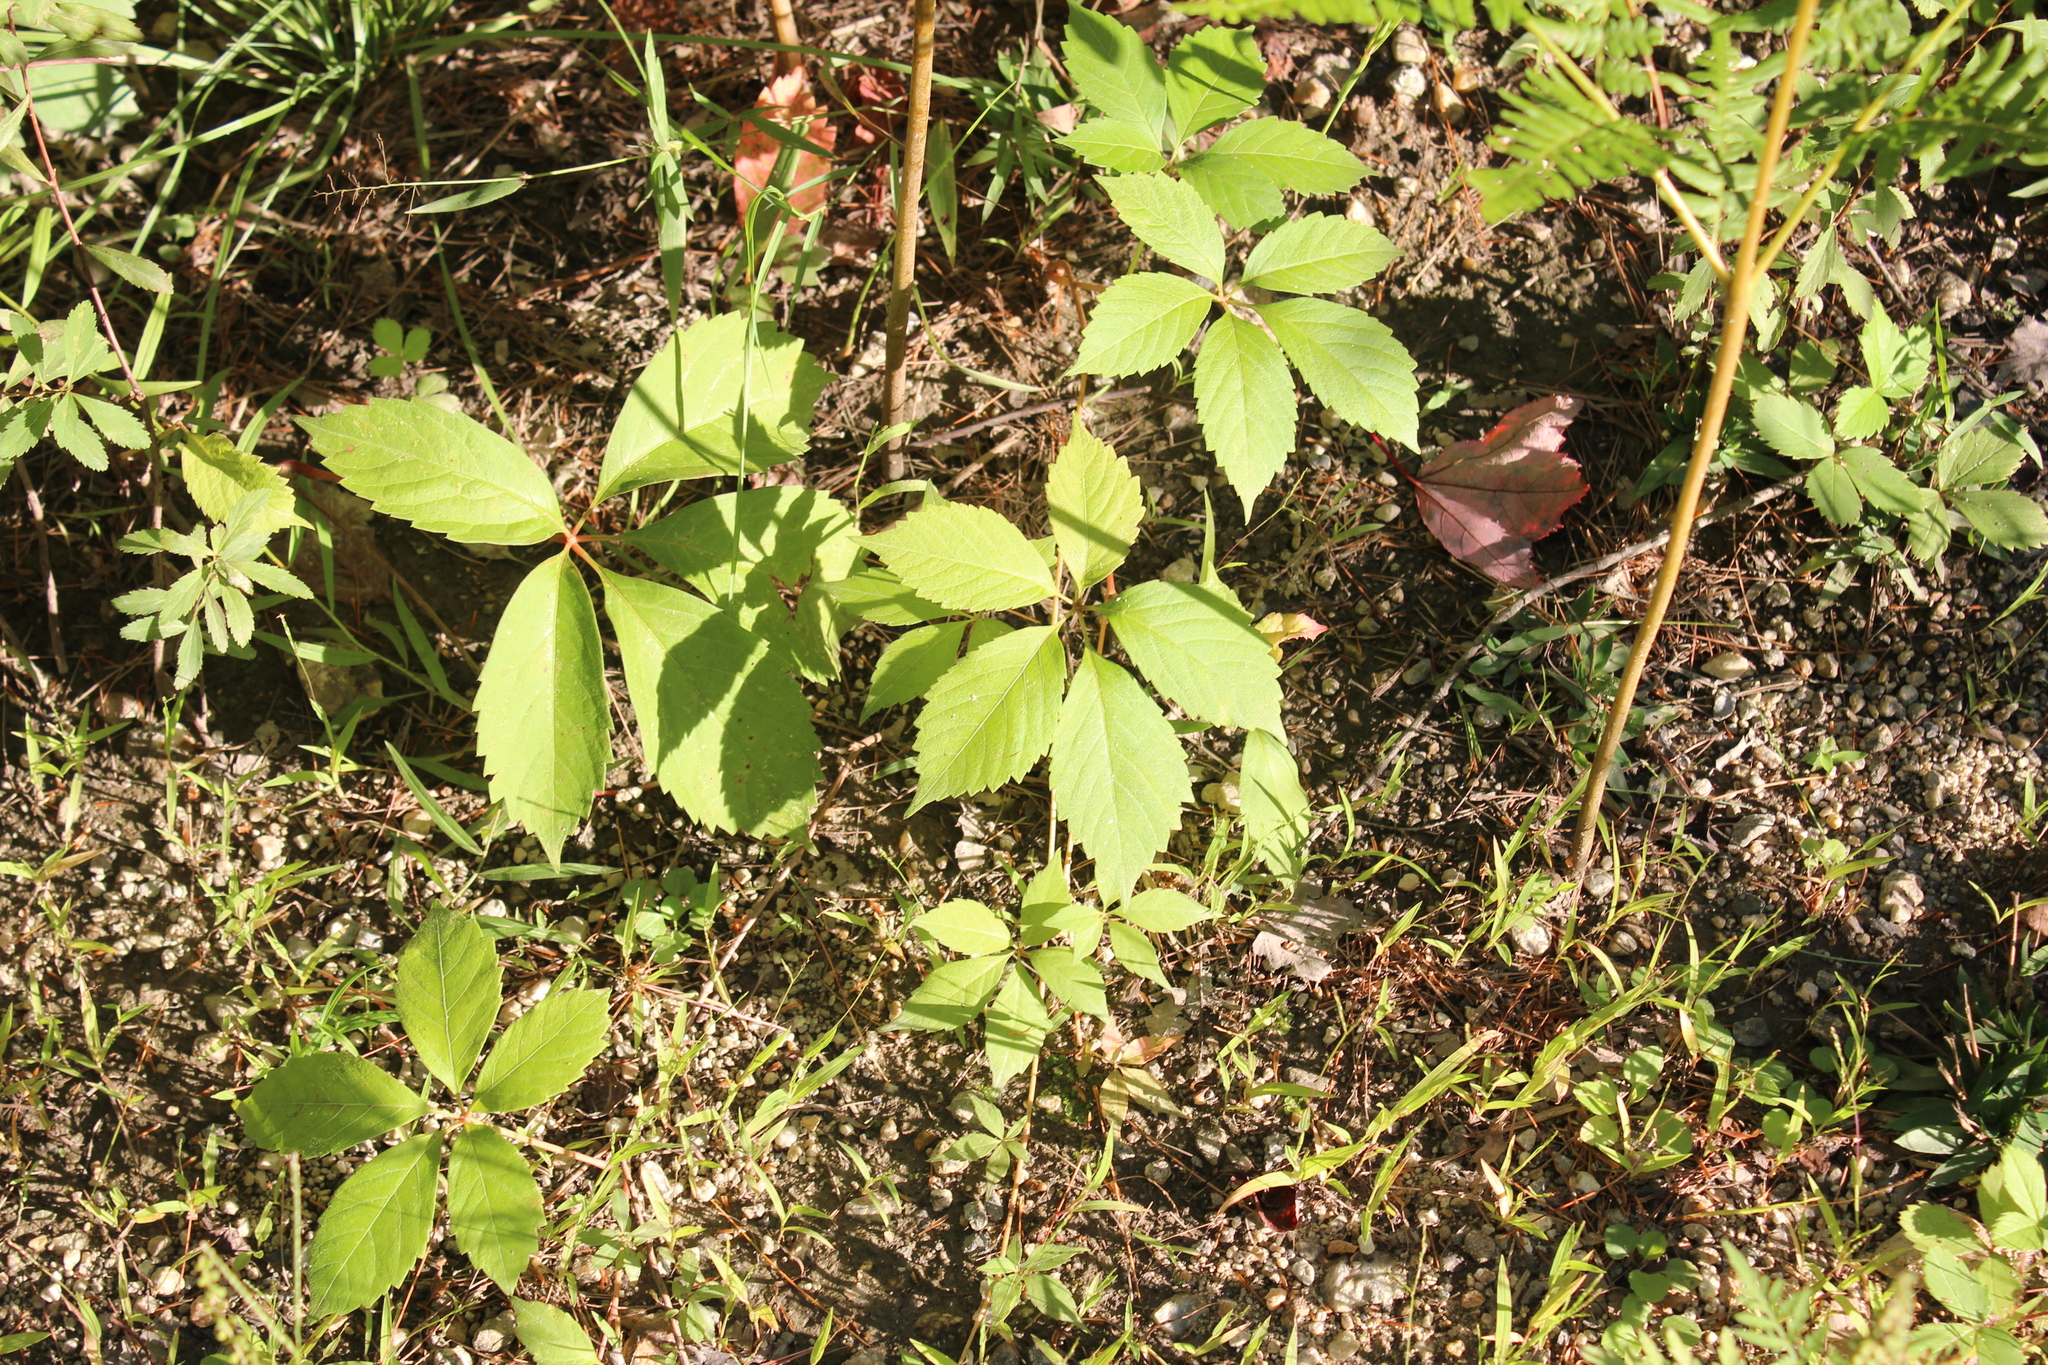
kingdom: Plantae
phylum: Tracheophyta
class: Magnoliopsida
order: Vitales
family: Vitaceae
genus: Parthenocissus
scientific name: Parthenocissus quinquefolia
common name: Virginia-creeper
